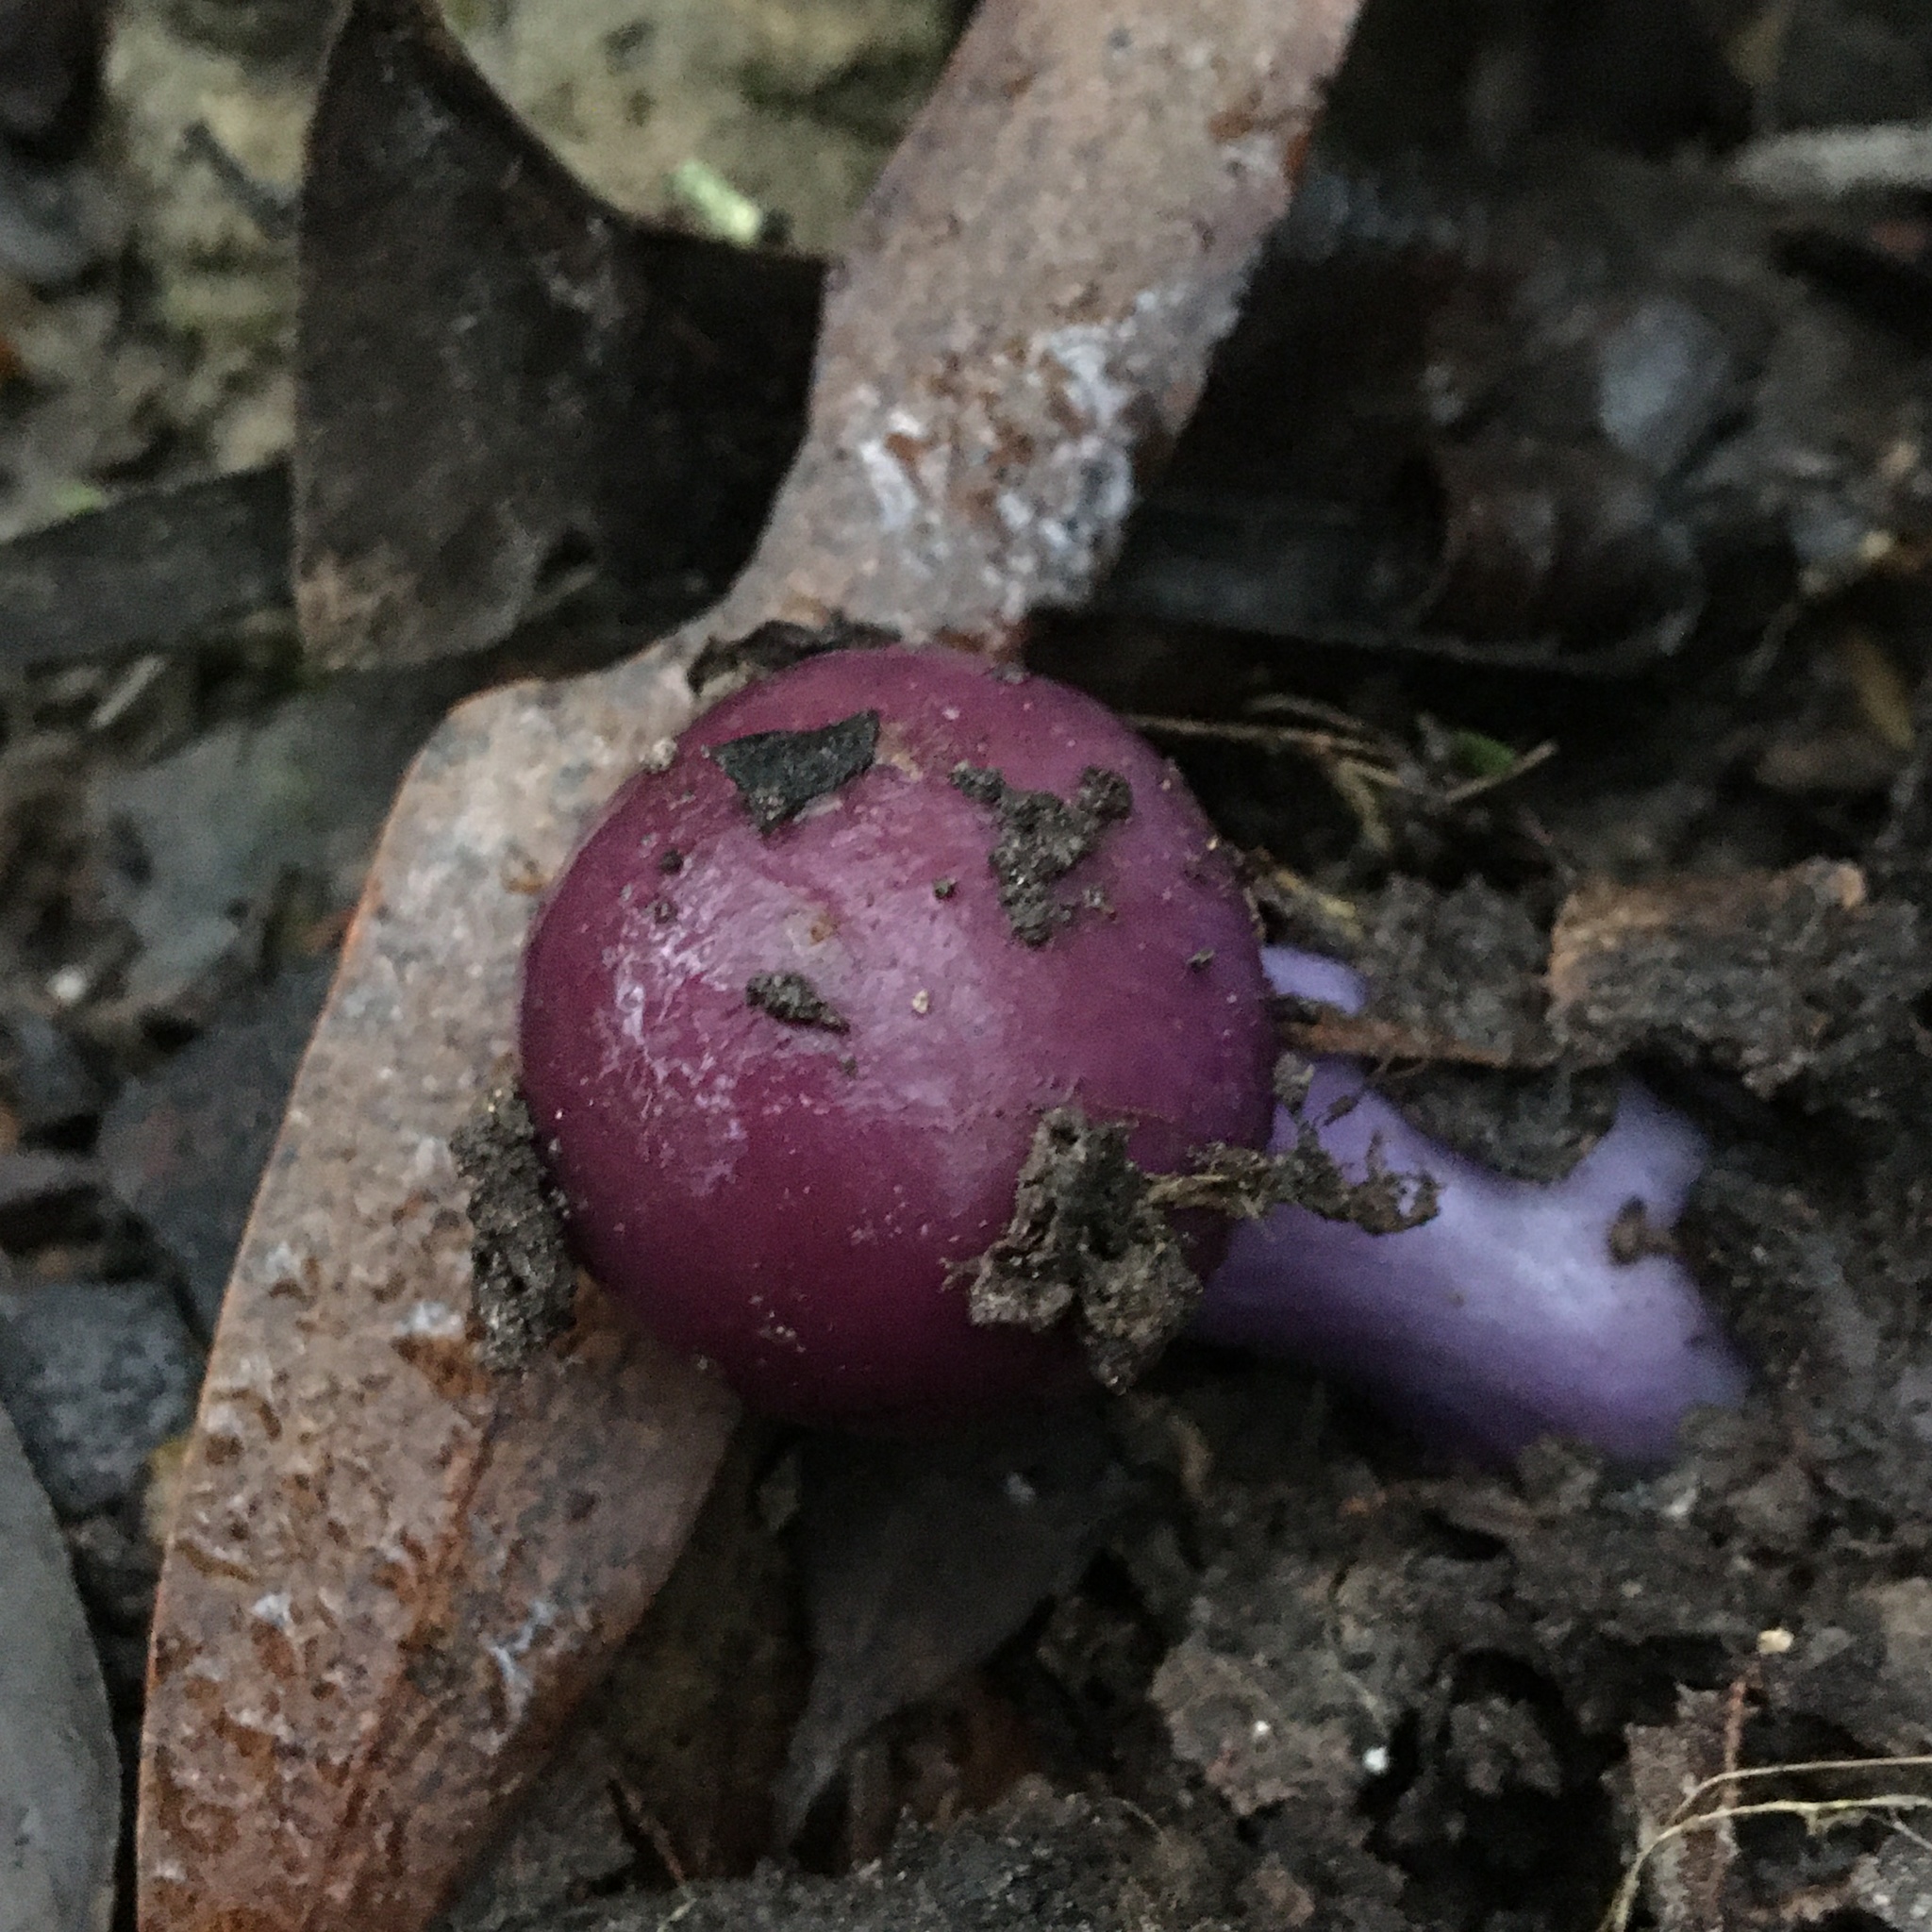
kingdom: Fungi
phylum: Basidiomycota
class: Agaricomycetes
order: Agaricales
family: Cortinariaceae
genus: Cortinarius
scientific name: Cortinarius archeri
